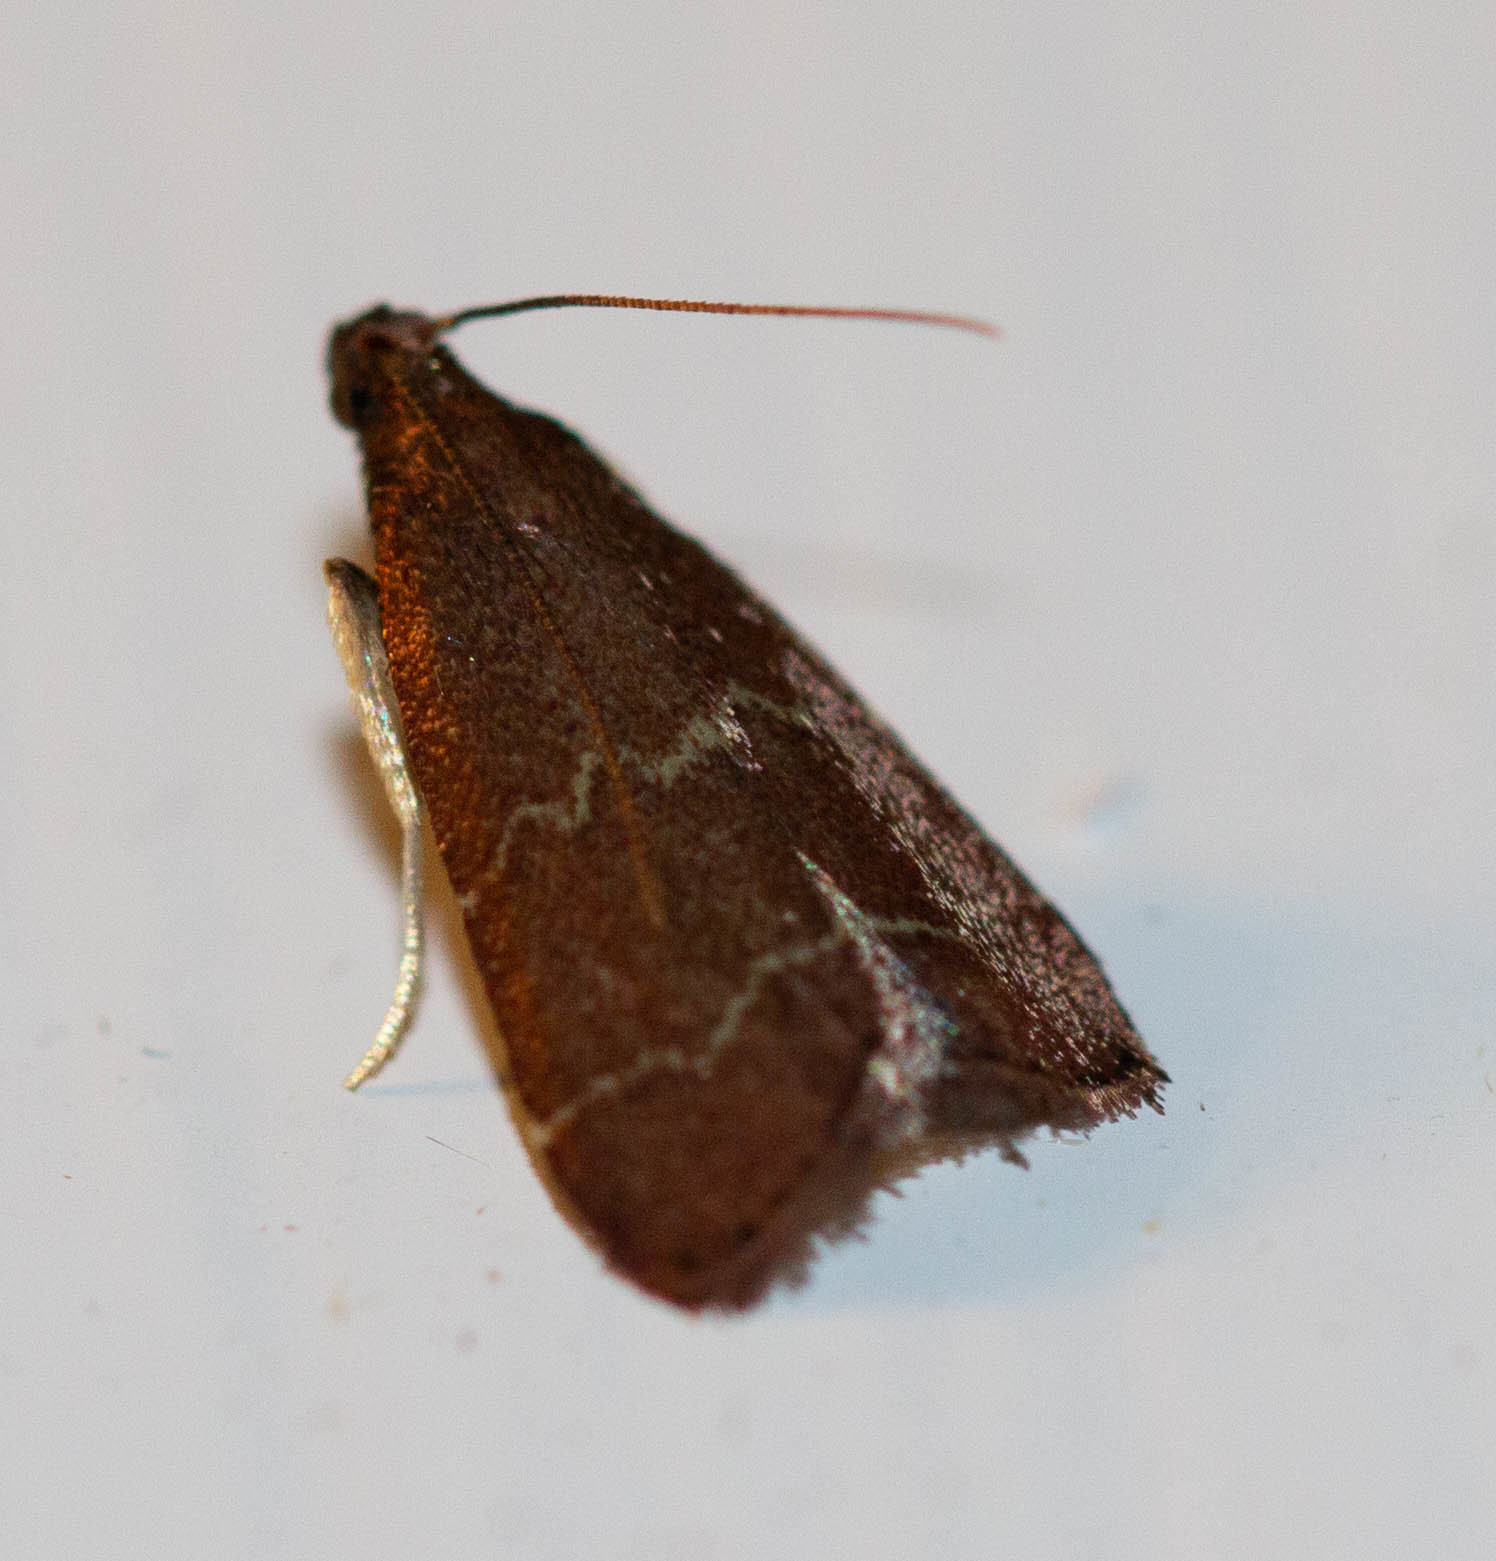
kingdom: Animalia
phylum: Arthropoda
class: Insecta
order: Lepidoptera
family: Pyralidae
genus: Arta
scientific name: Arta
